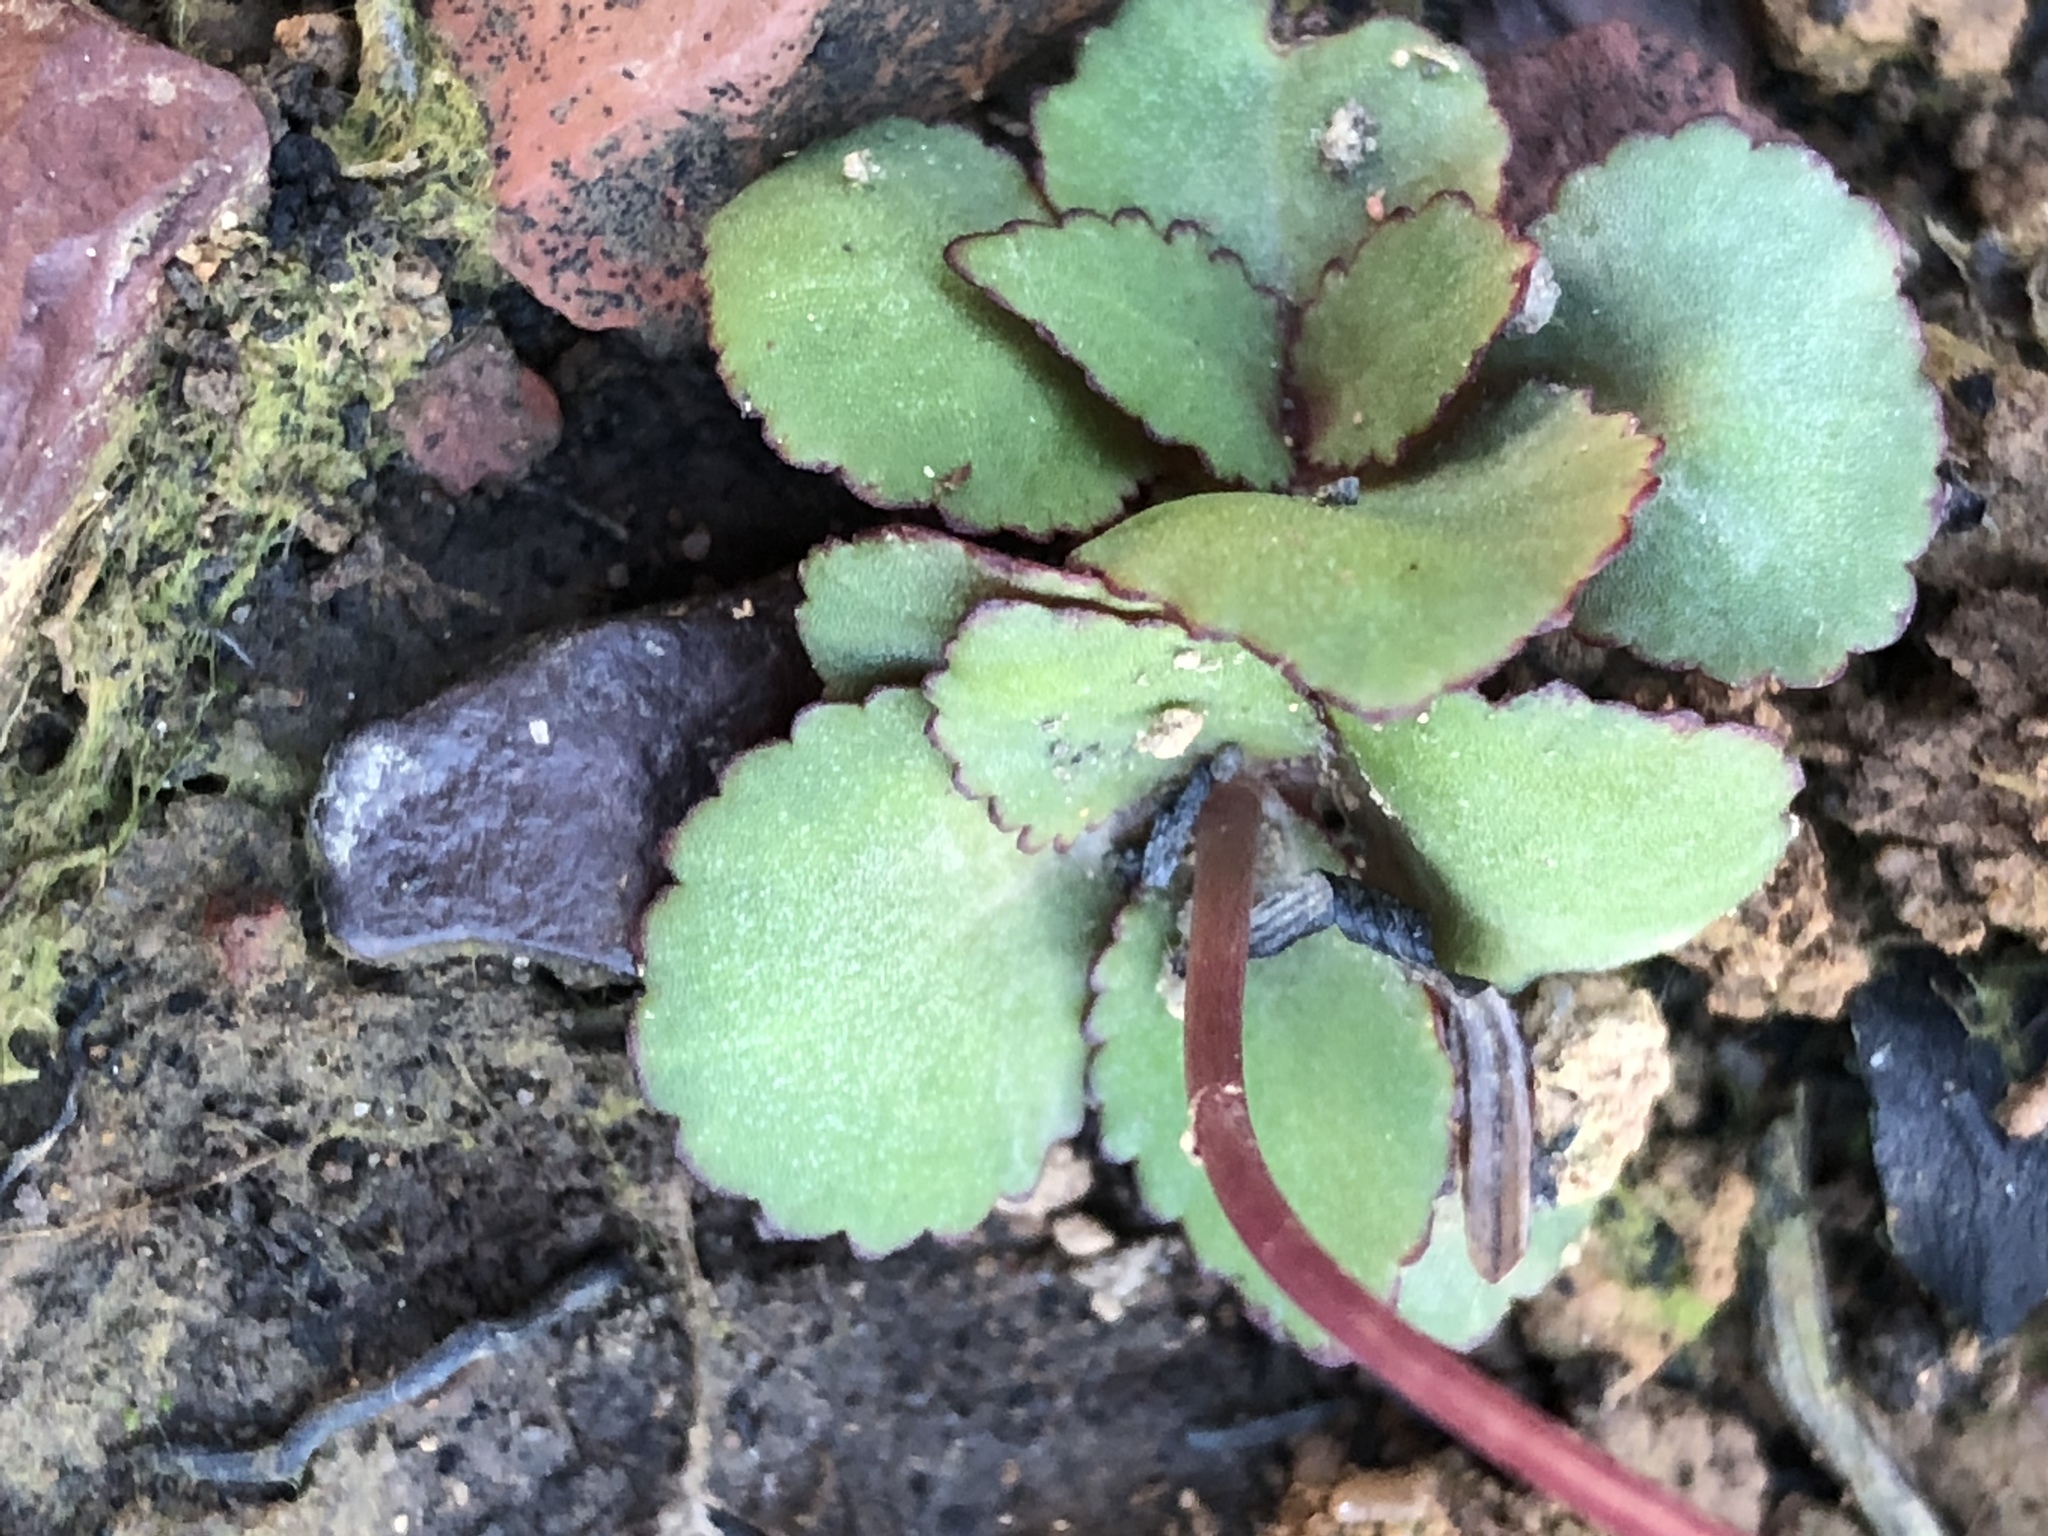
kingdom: Plantae
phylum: Tracheophyta
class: Magnoliopsida
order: Saxifragales
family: Crassulaceae
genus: Crassula
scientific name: Crassula capensis
